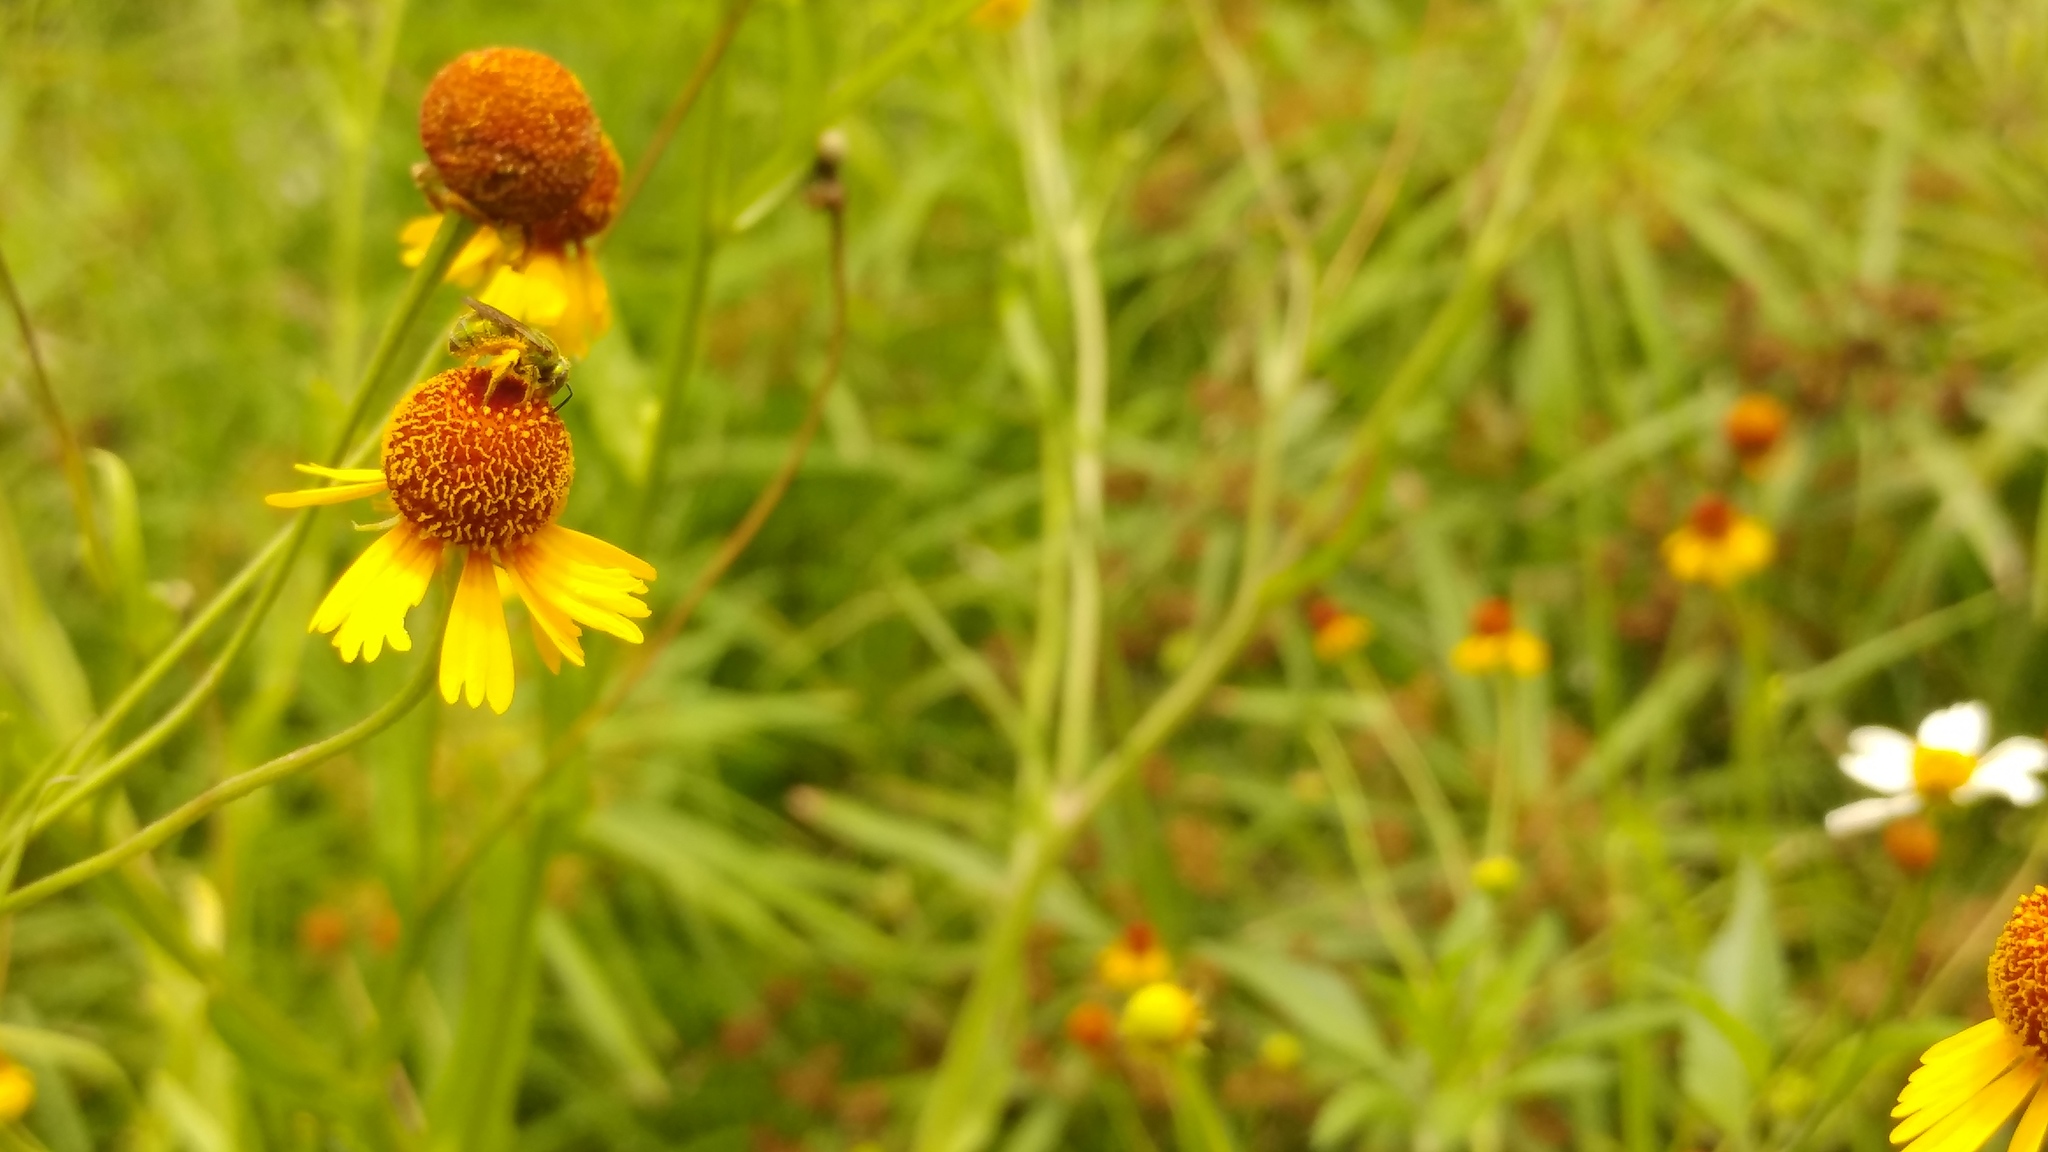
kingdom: Animalia
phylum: Arthropoda
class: Insecta
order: Hymenoptera
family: Halictidae
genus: Augochlora
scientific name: Augochlora aurifera
